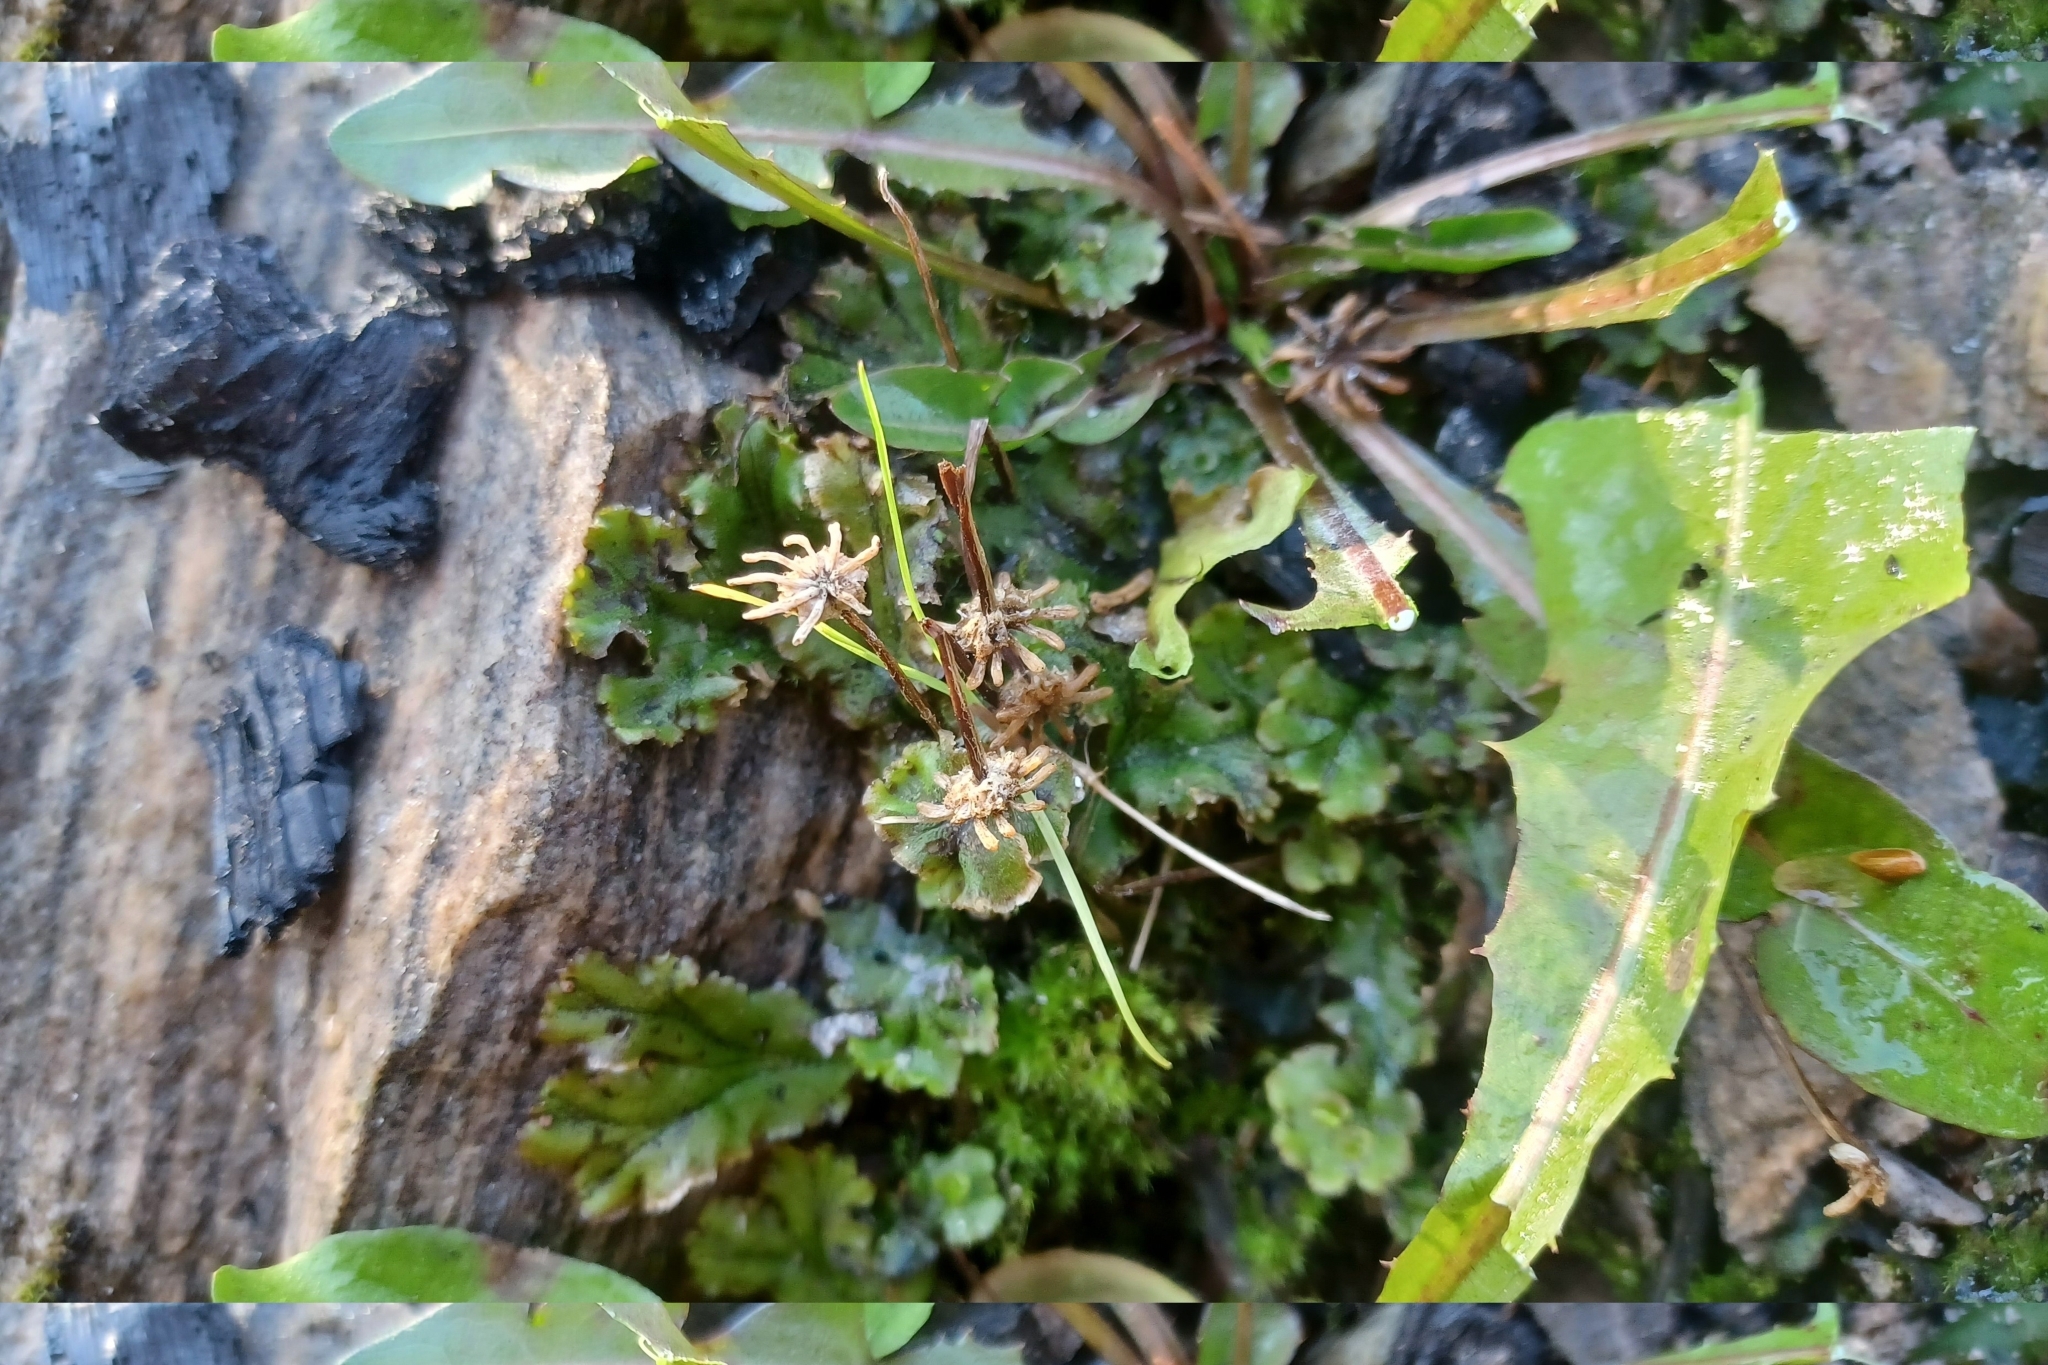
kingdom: Plantae
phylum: Marchantiophyta
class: Marchantiopsida
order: Marchantiales
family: Marchantiaceae
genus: Marchantia
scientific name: Marchantia polymorpha
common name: Common liverwort
